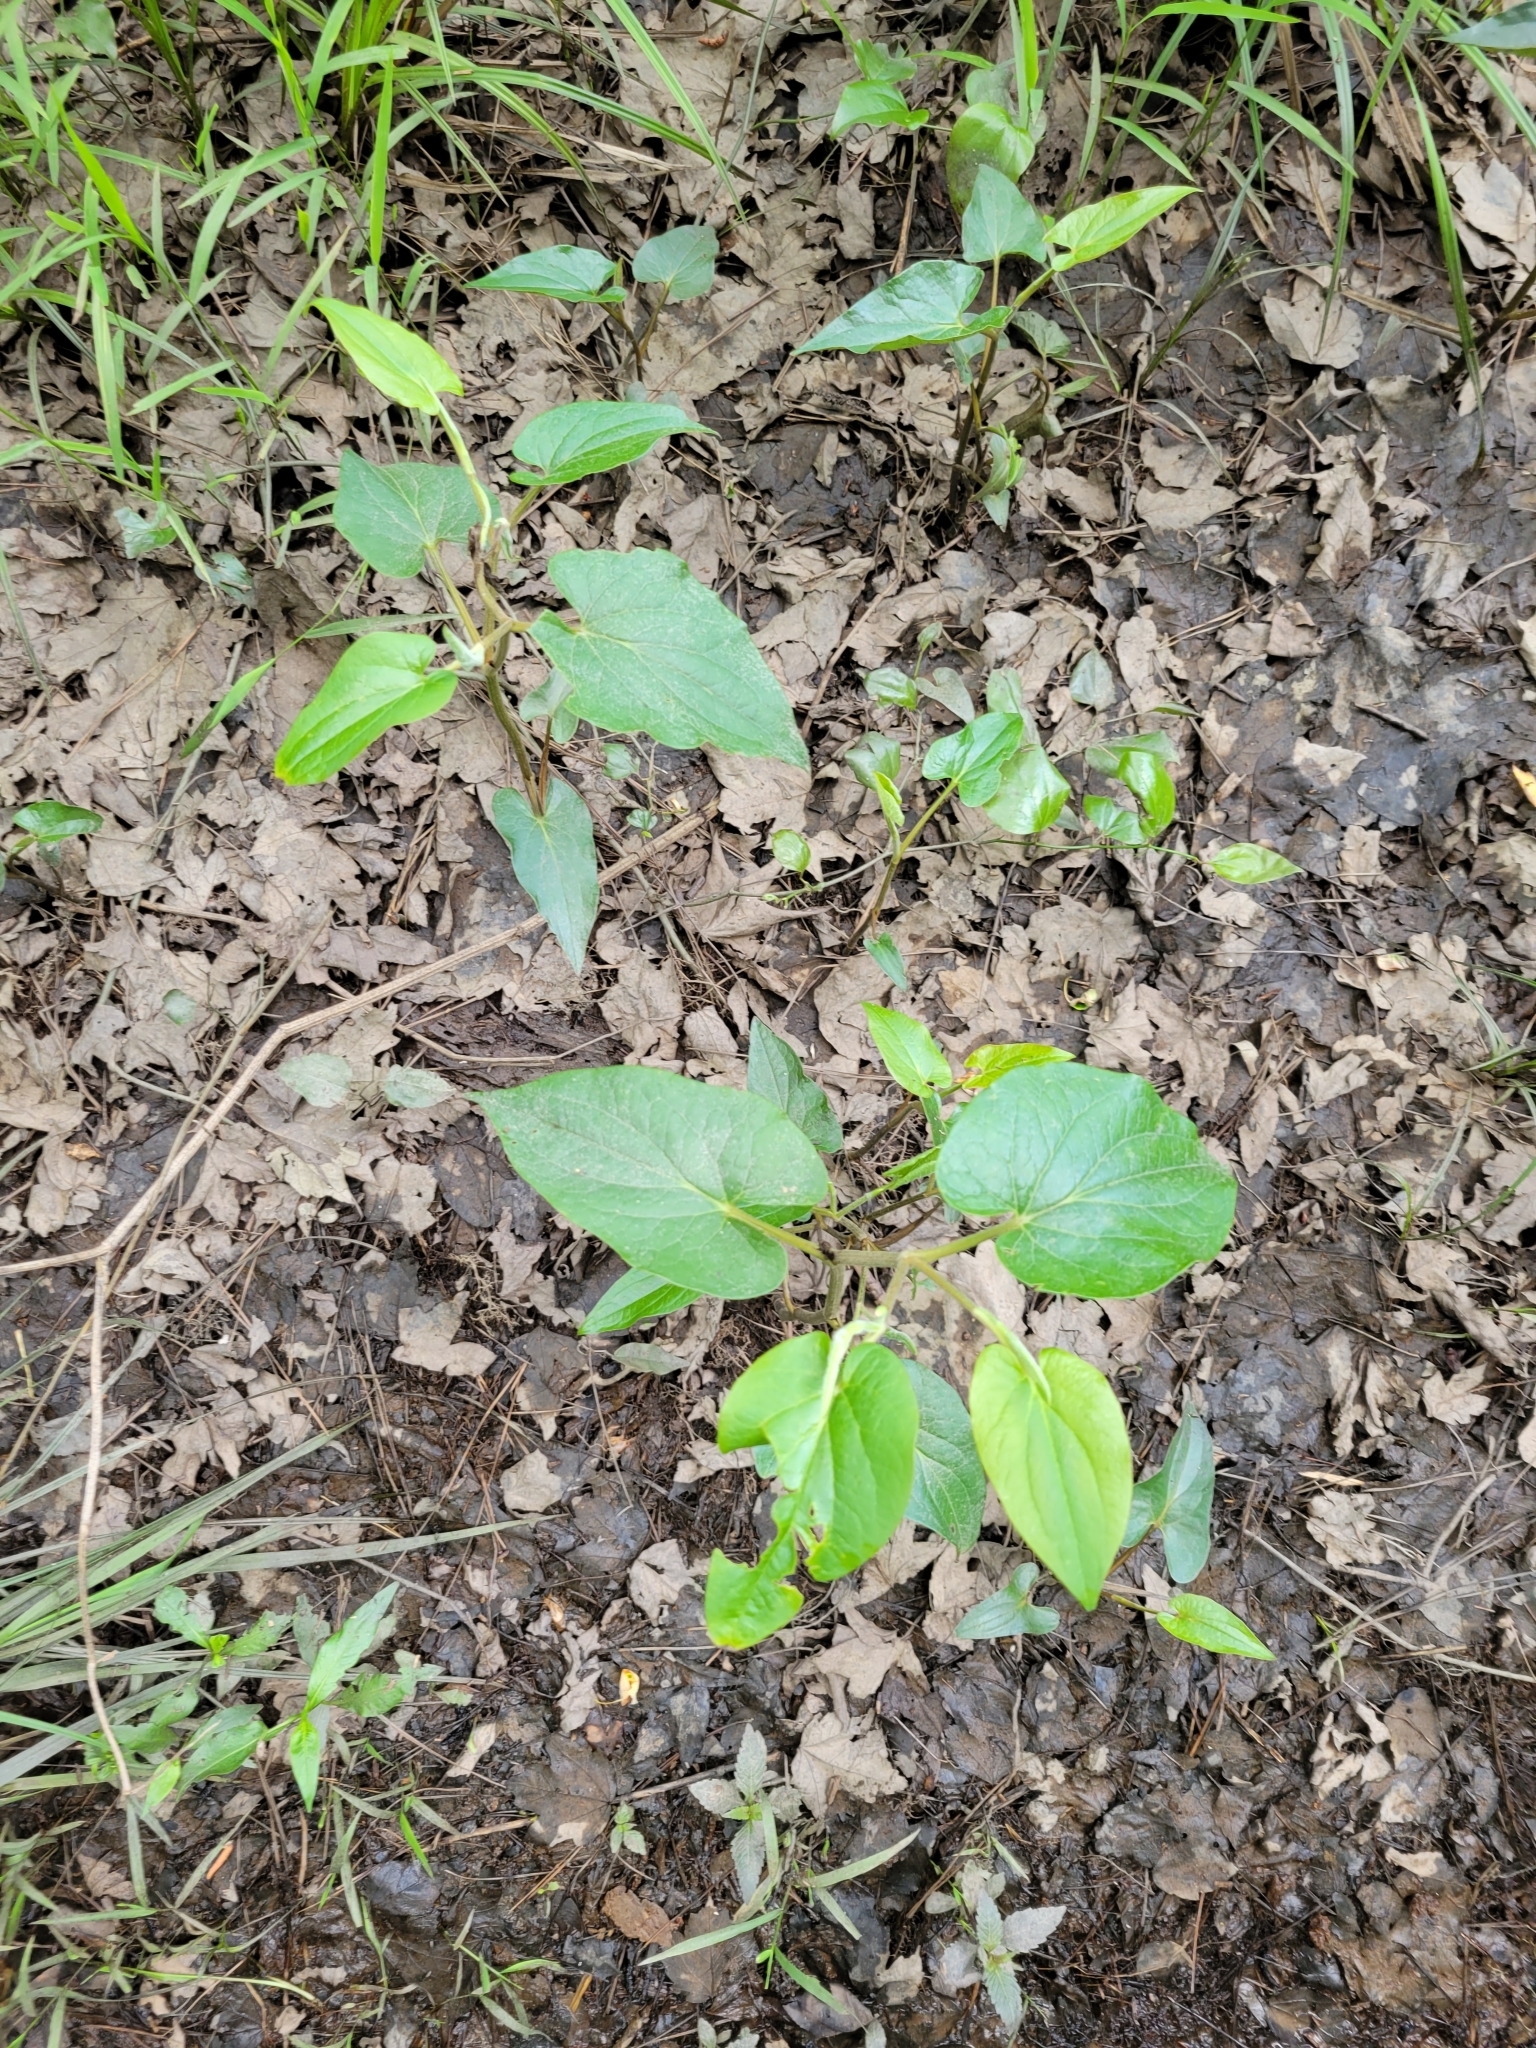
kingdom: Plantae
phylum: Tracheophyta
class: Magnoliopsida
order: Piperales
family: Saururaceae
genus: Saururus
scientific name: Saururus cernuus
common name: Lizard's-tail
